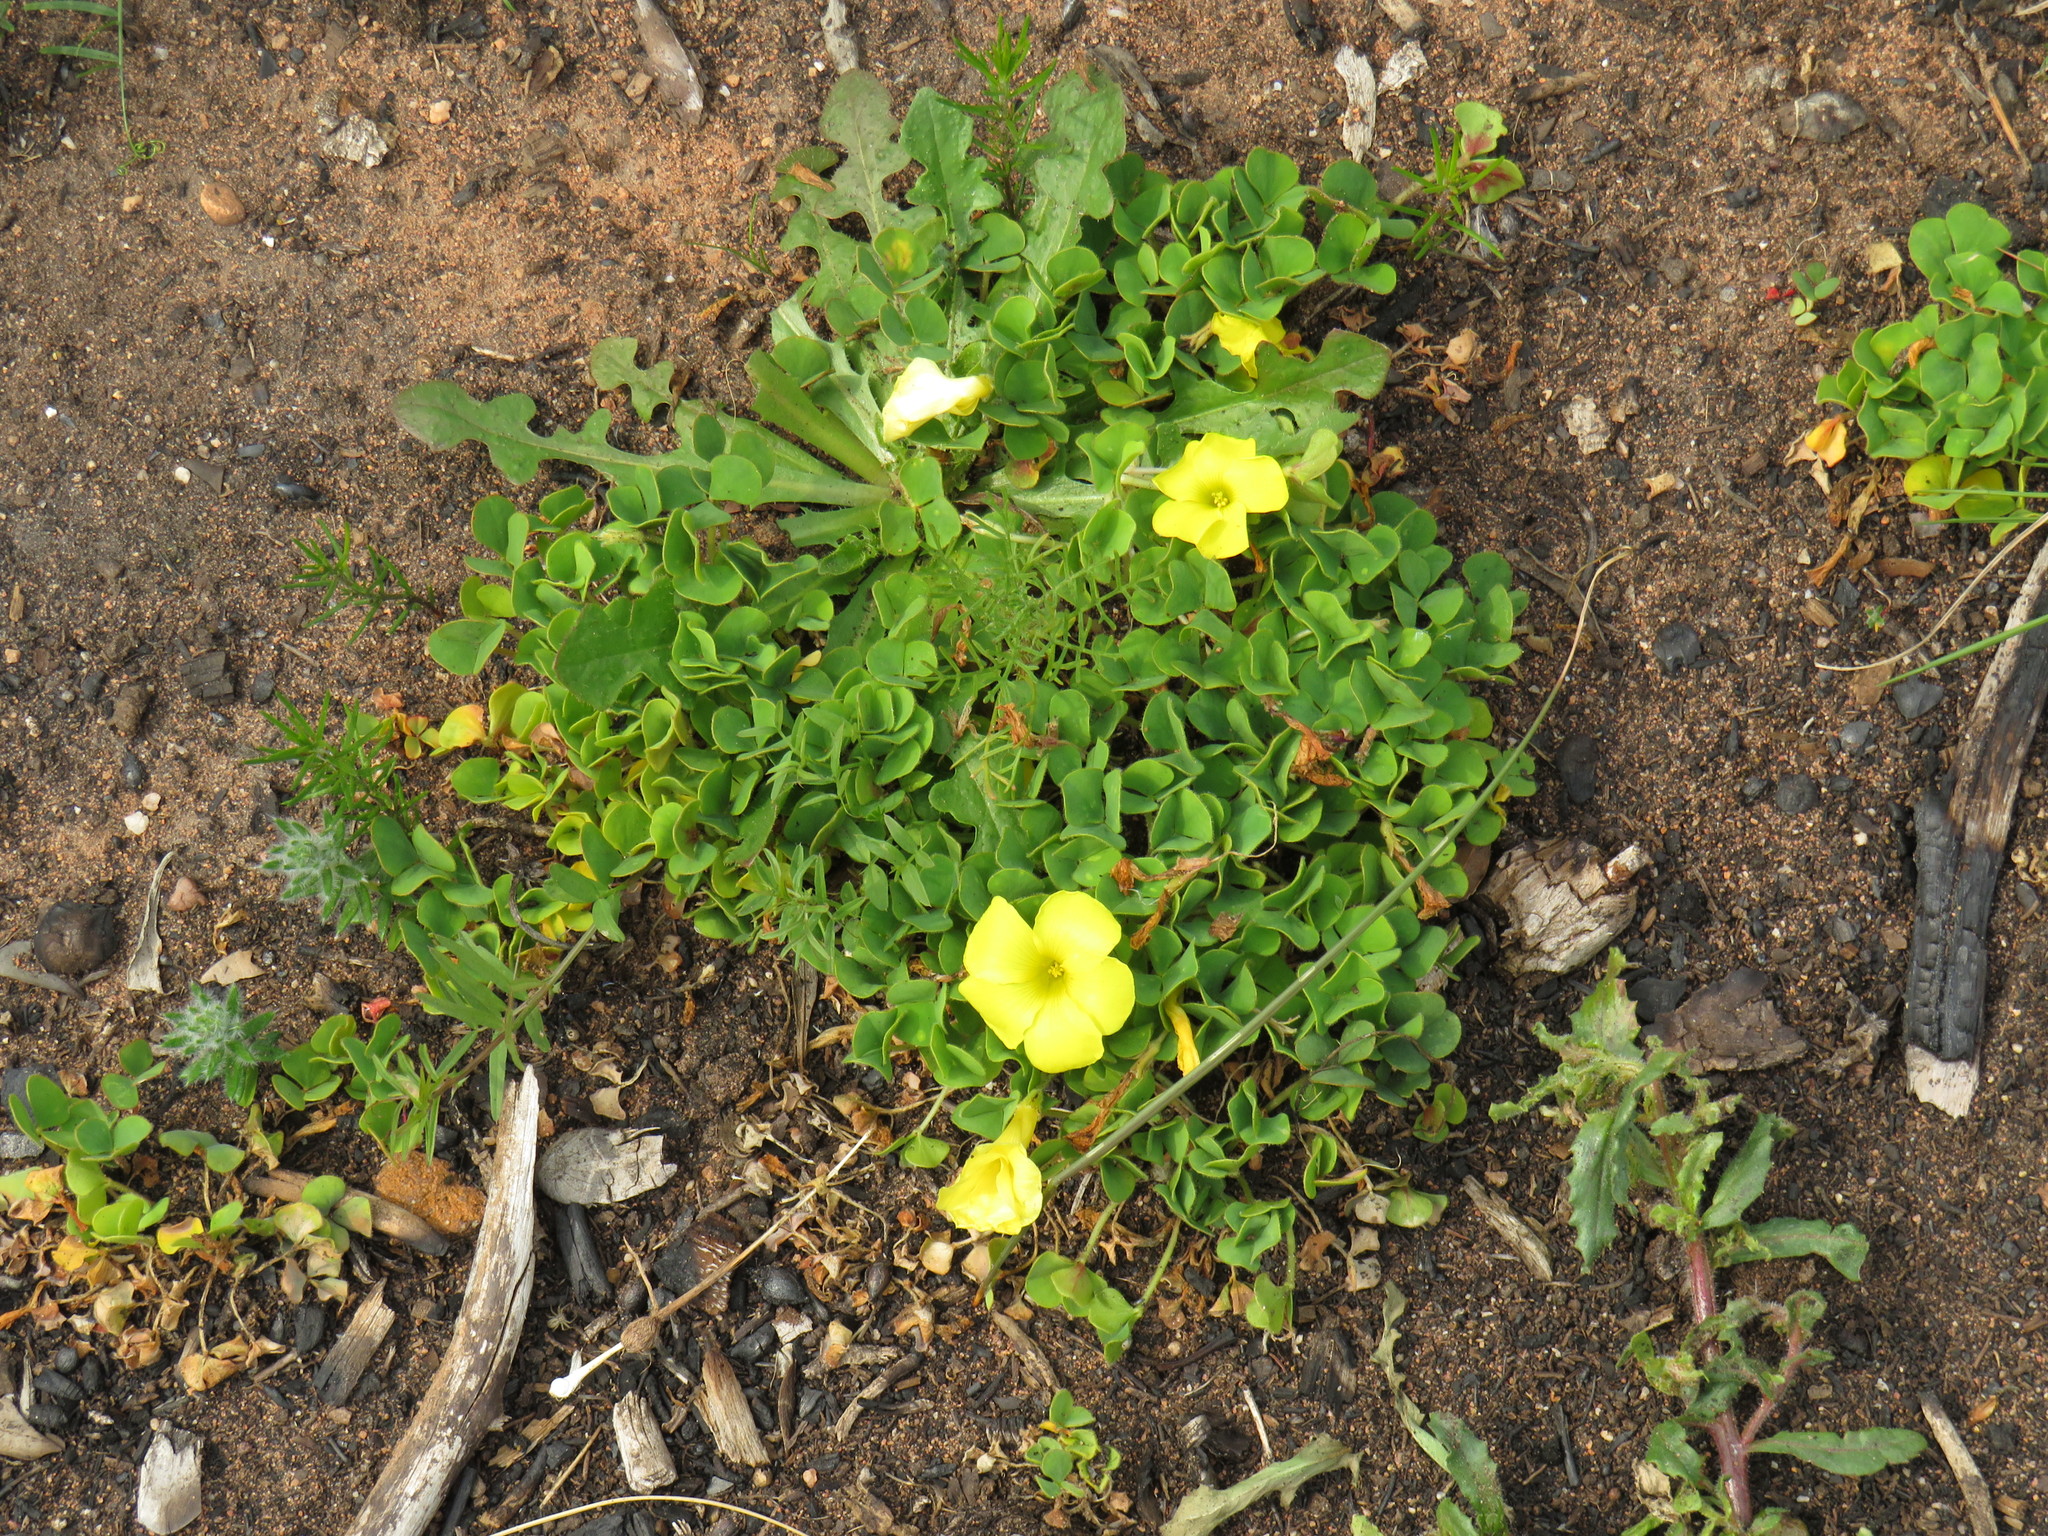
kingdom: Plantae
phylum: Tracheophyta
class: Magnoliopsida
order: Oxalidales
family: Oxalidaceae
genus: Oxalis
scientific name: Oxalis luteola
